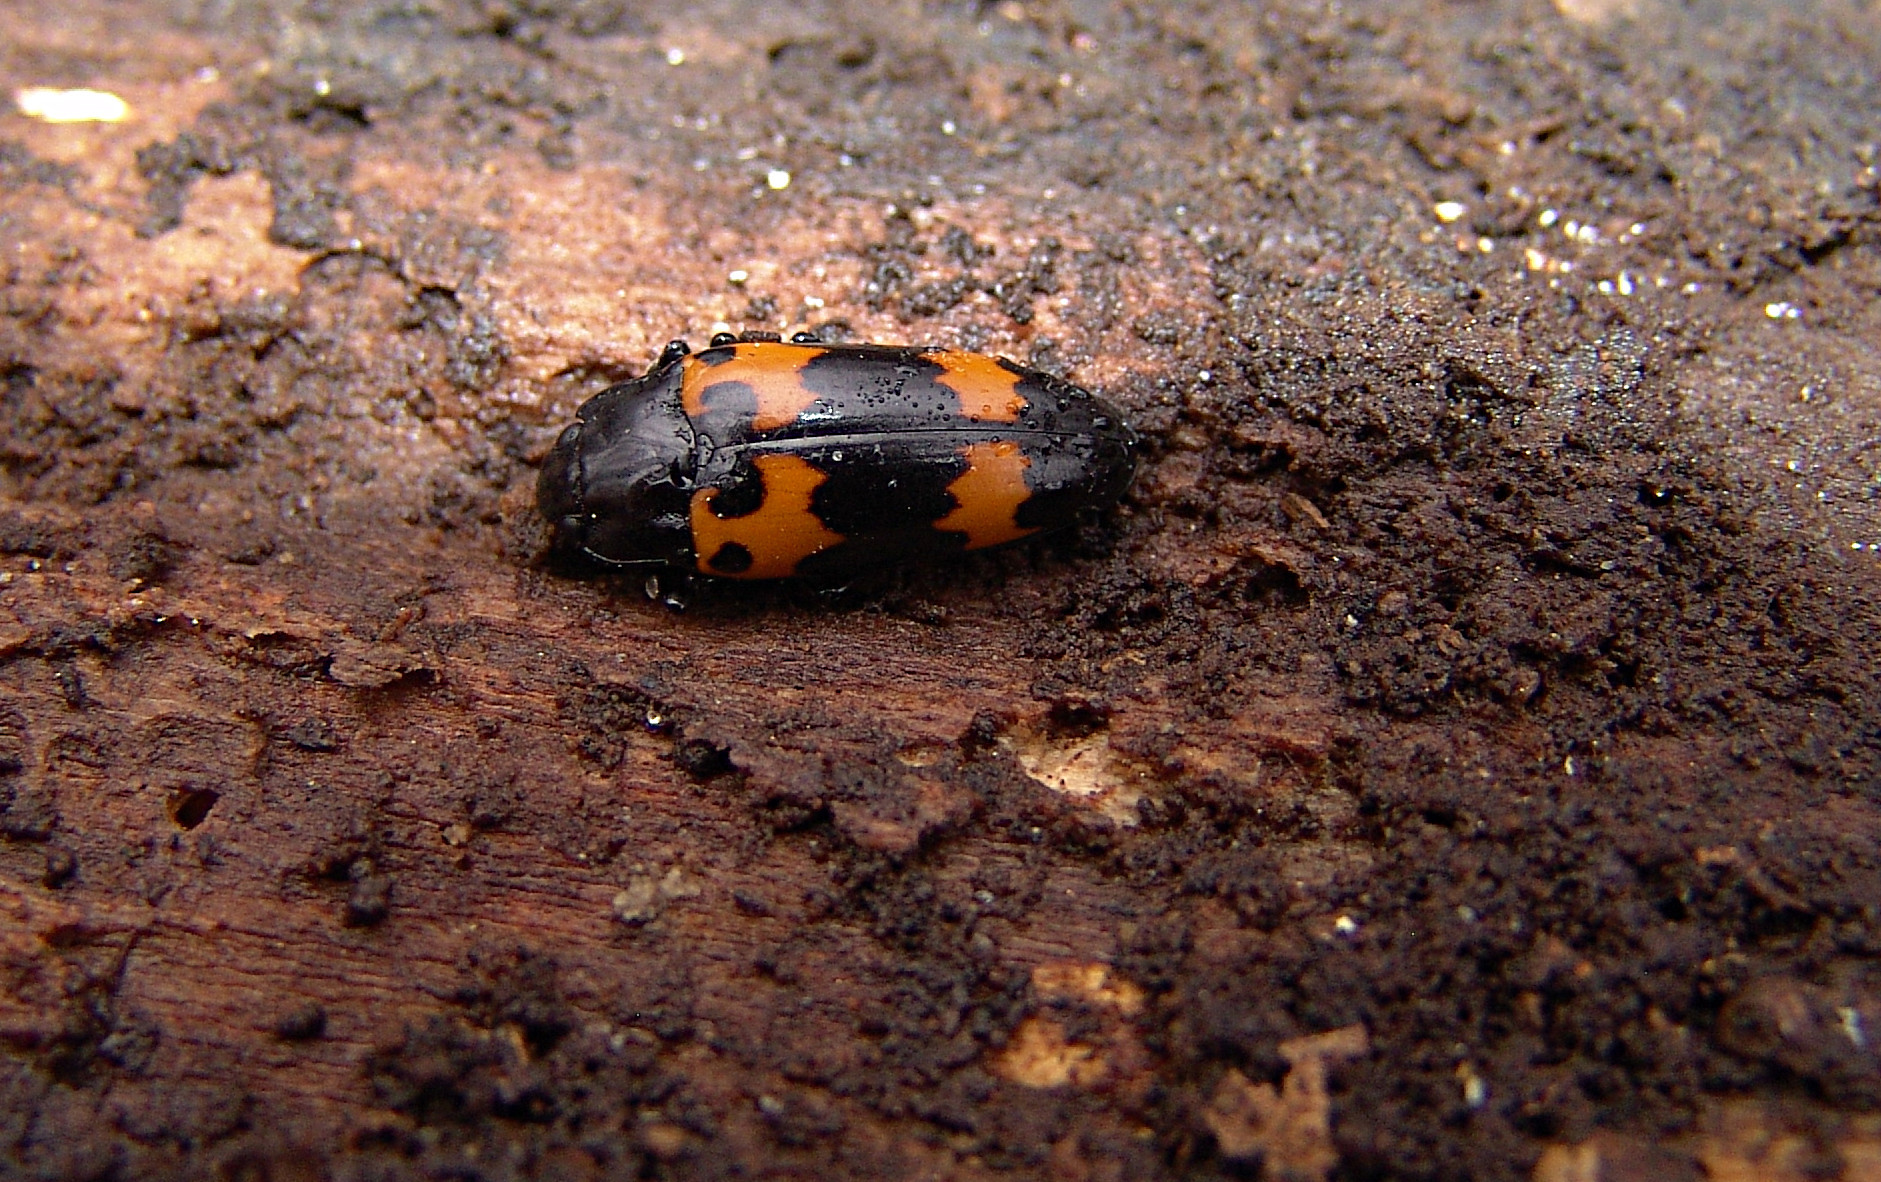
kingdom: Animalia
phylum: Arthropoda
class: Insecta
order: Coleoptera
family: Erotylidae
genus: Megalodacne
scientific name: Megalodacne heros
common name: Pleasing fungus beetle
